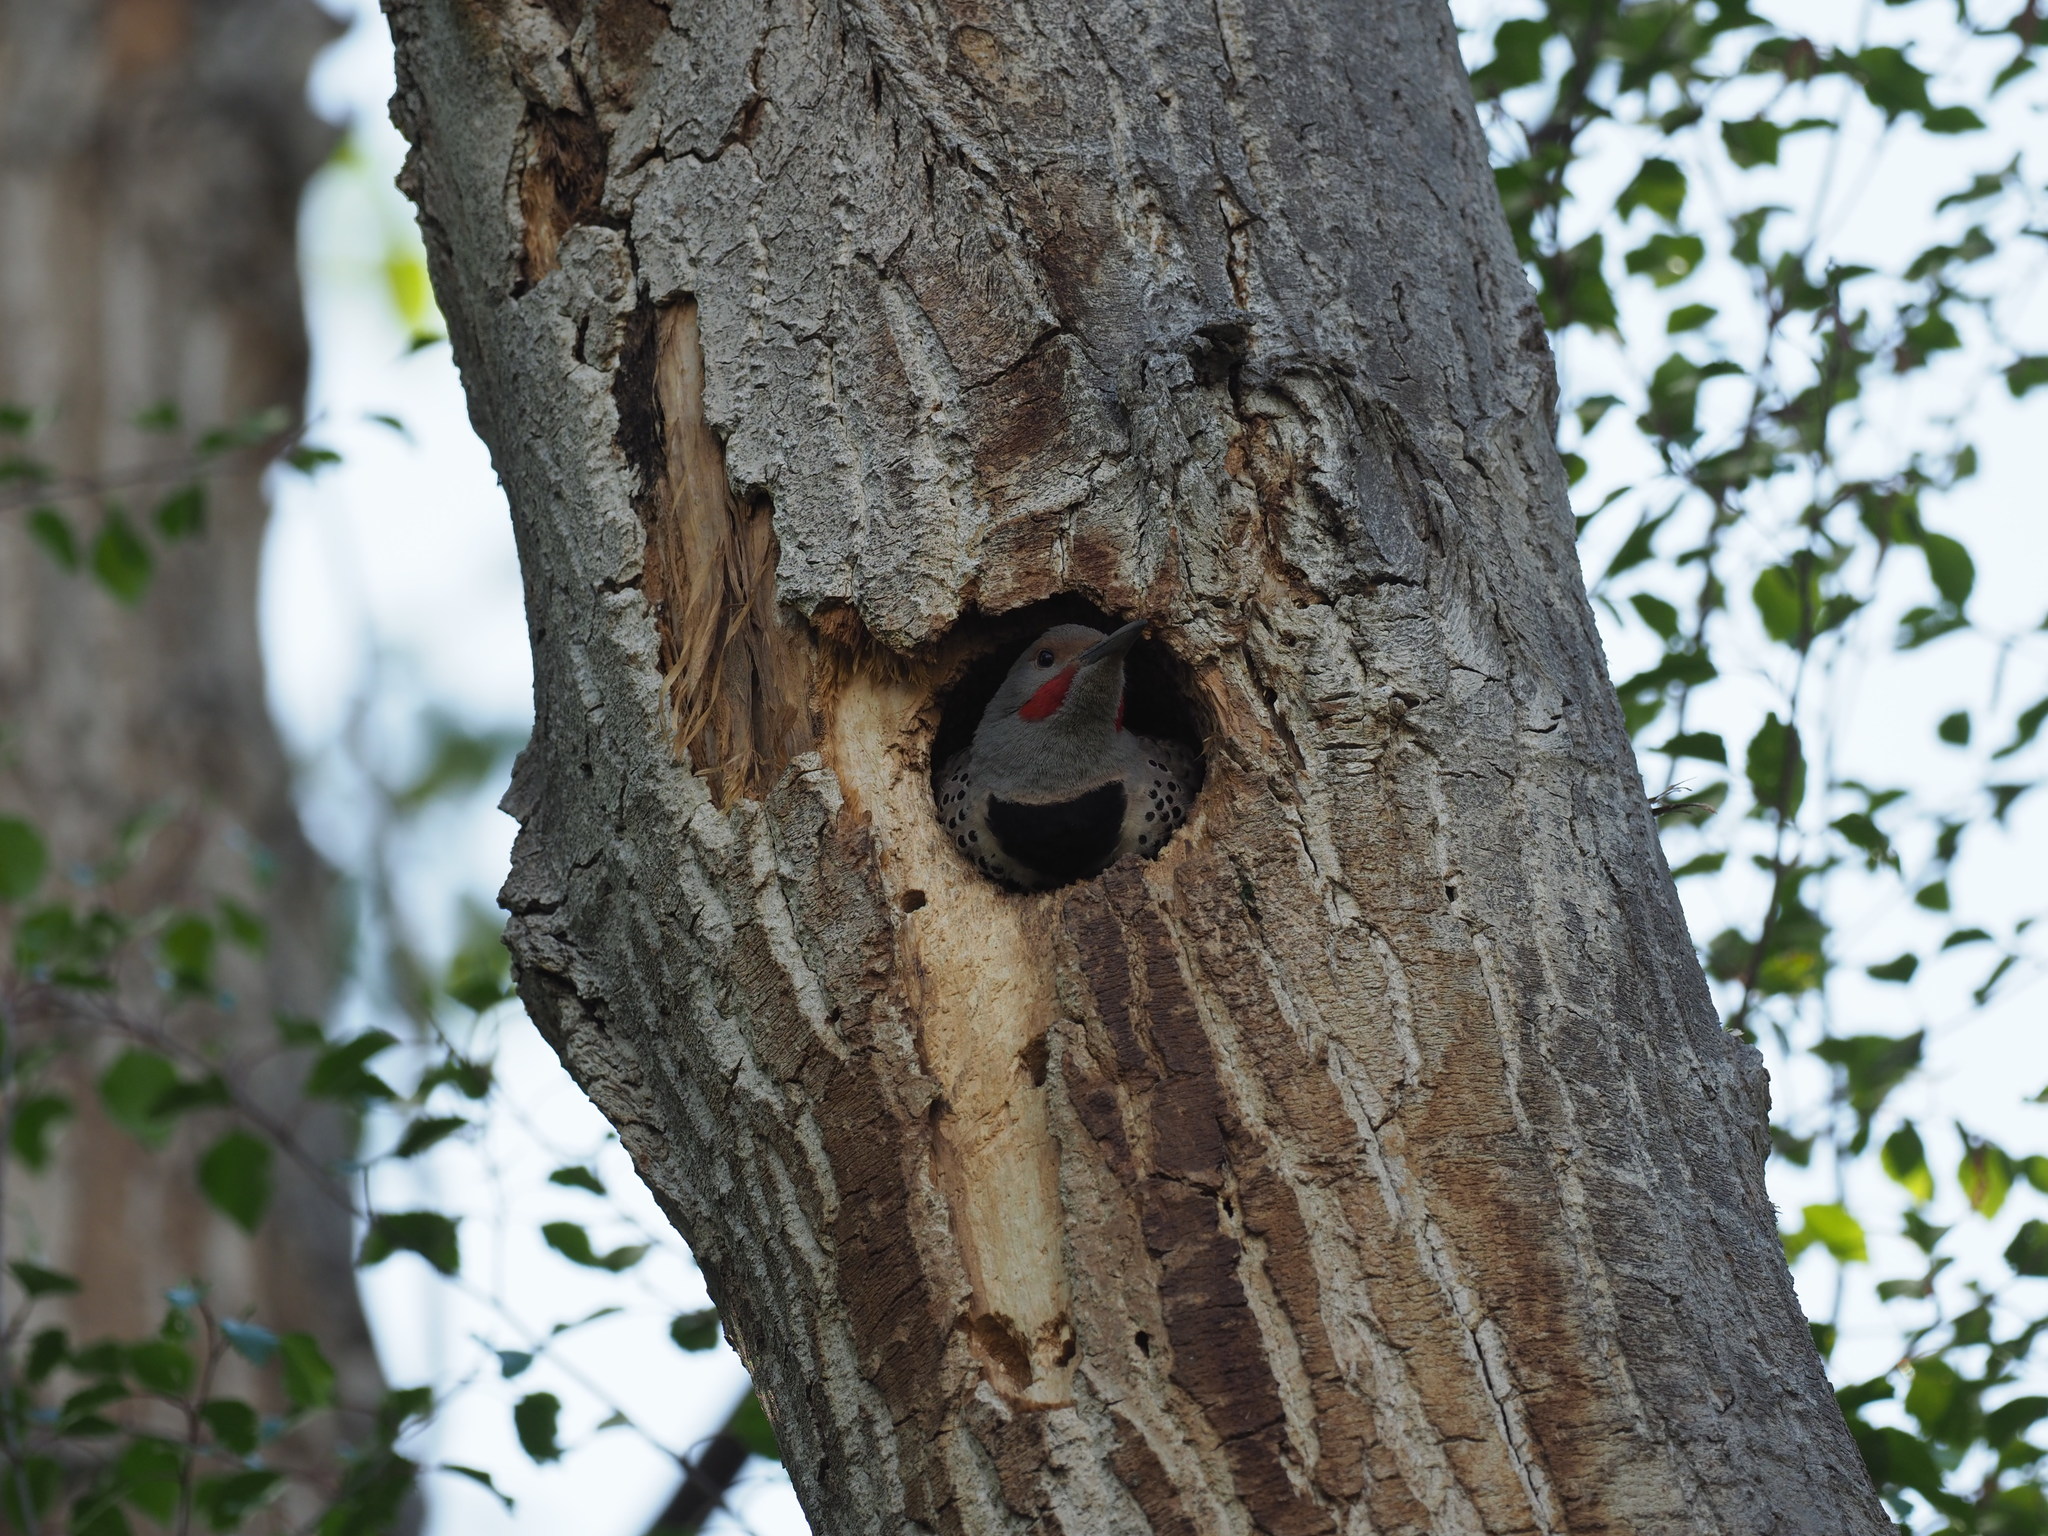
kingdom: Animalia
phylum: Chordata
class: Aves
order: Piciformes
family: Picidae
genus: Colaptes
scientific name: Colaptes auratus
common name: Northern flicker
